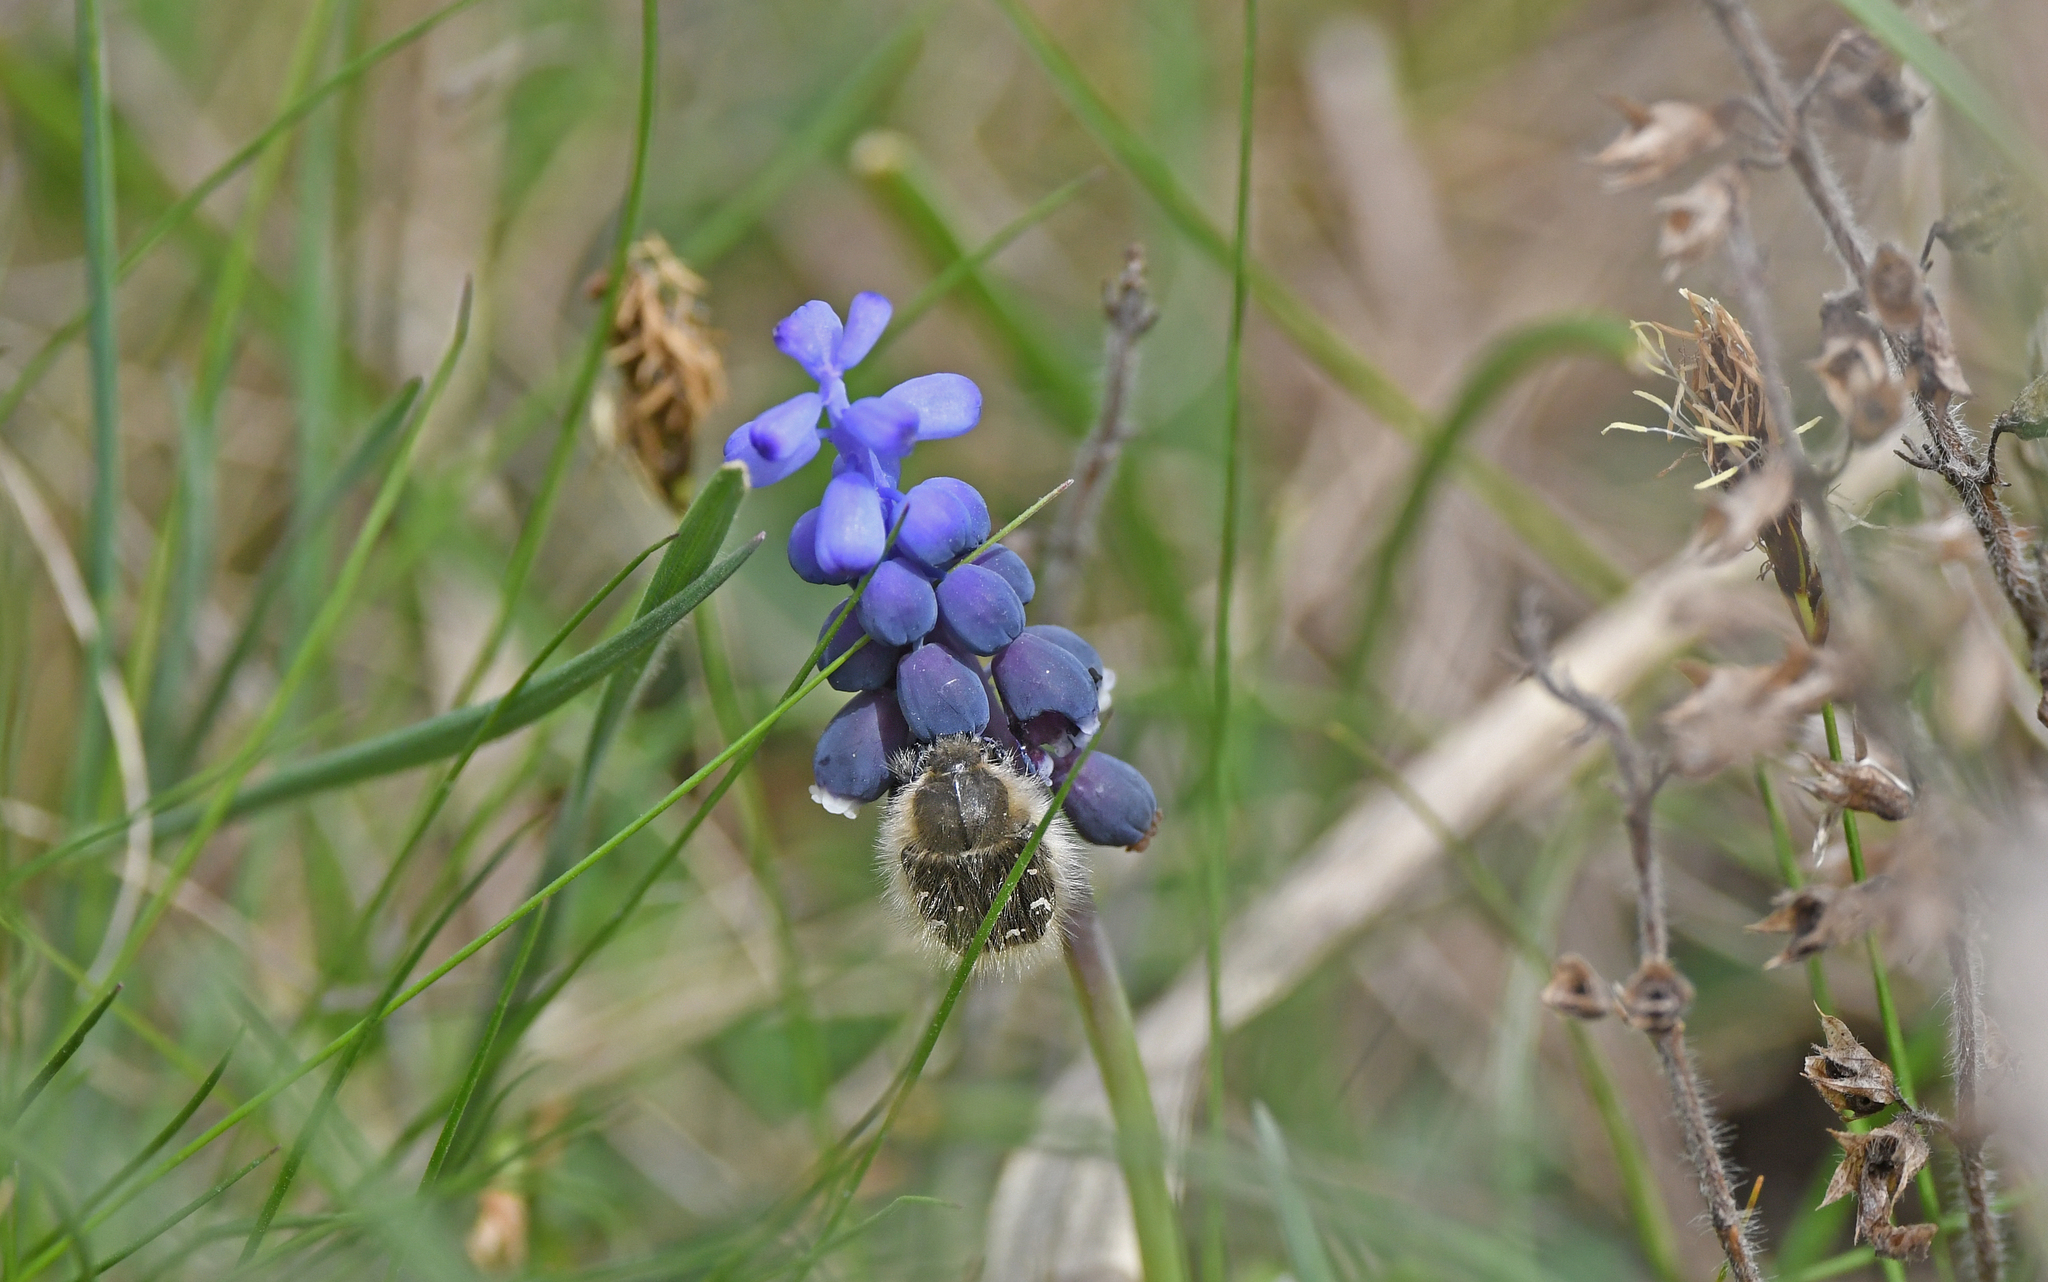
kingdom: Animalia
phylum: Arthropoda
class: Insecta
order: Coleoptera
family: Scarabaeidae
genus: Tropinota
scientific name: Tropinota hirta
